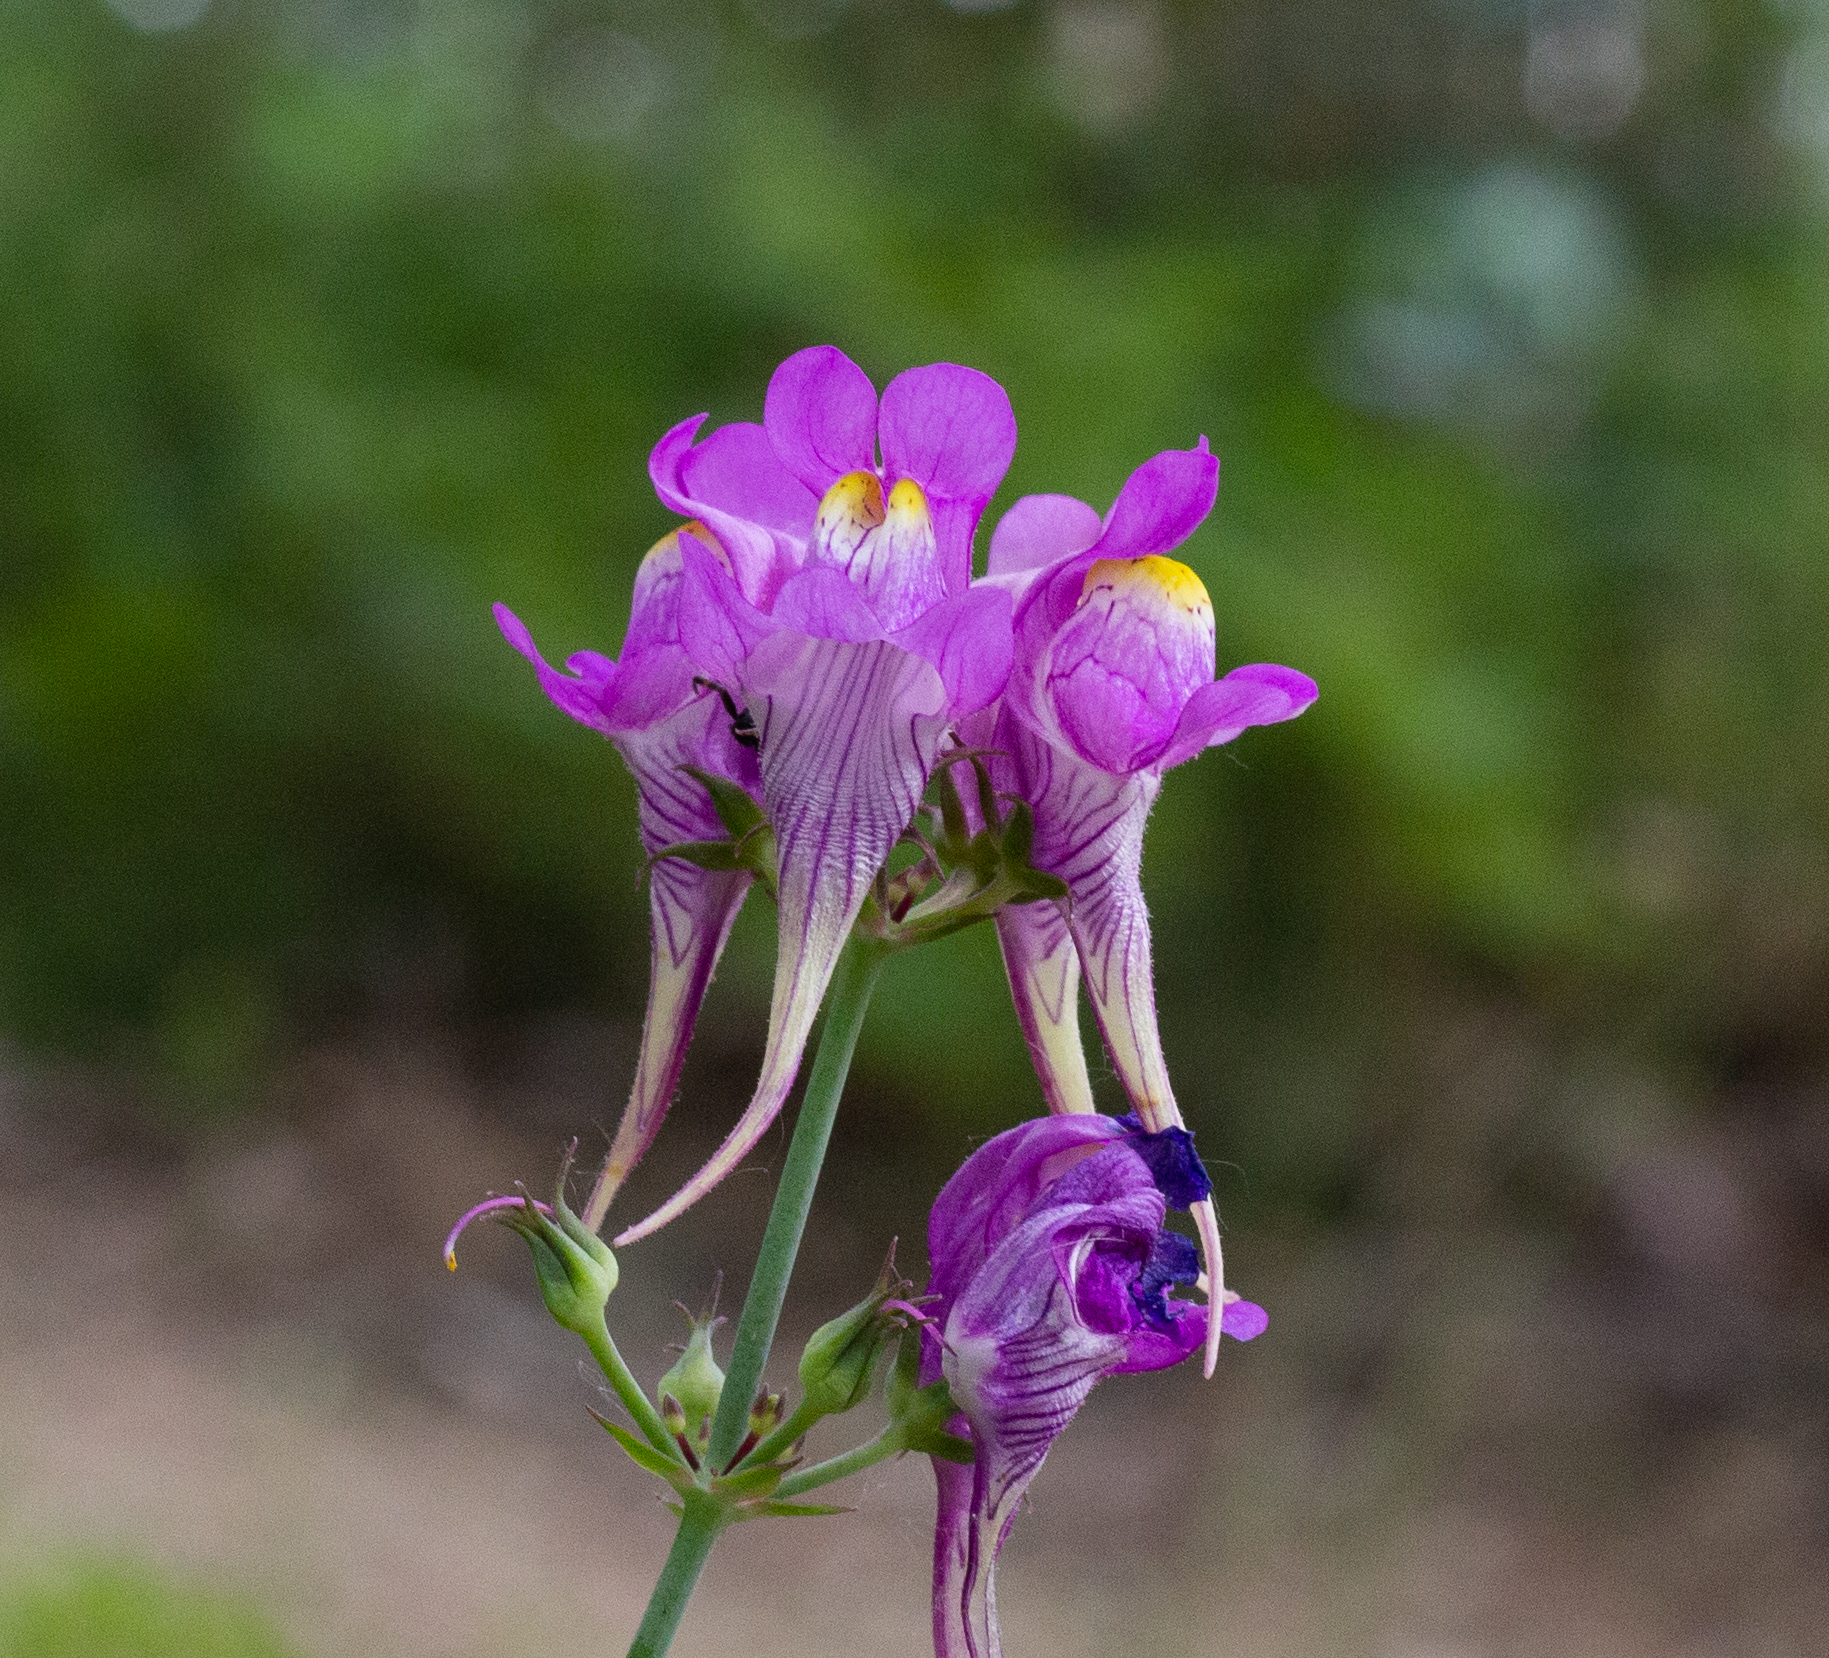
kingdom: Plantae
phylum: Tracheophyta
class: Magnoliopsida
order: Lamiales
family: Plantaginaceae
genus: Linaria
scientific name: Linaria triornithophora
